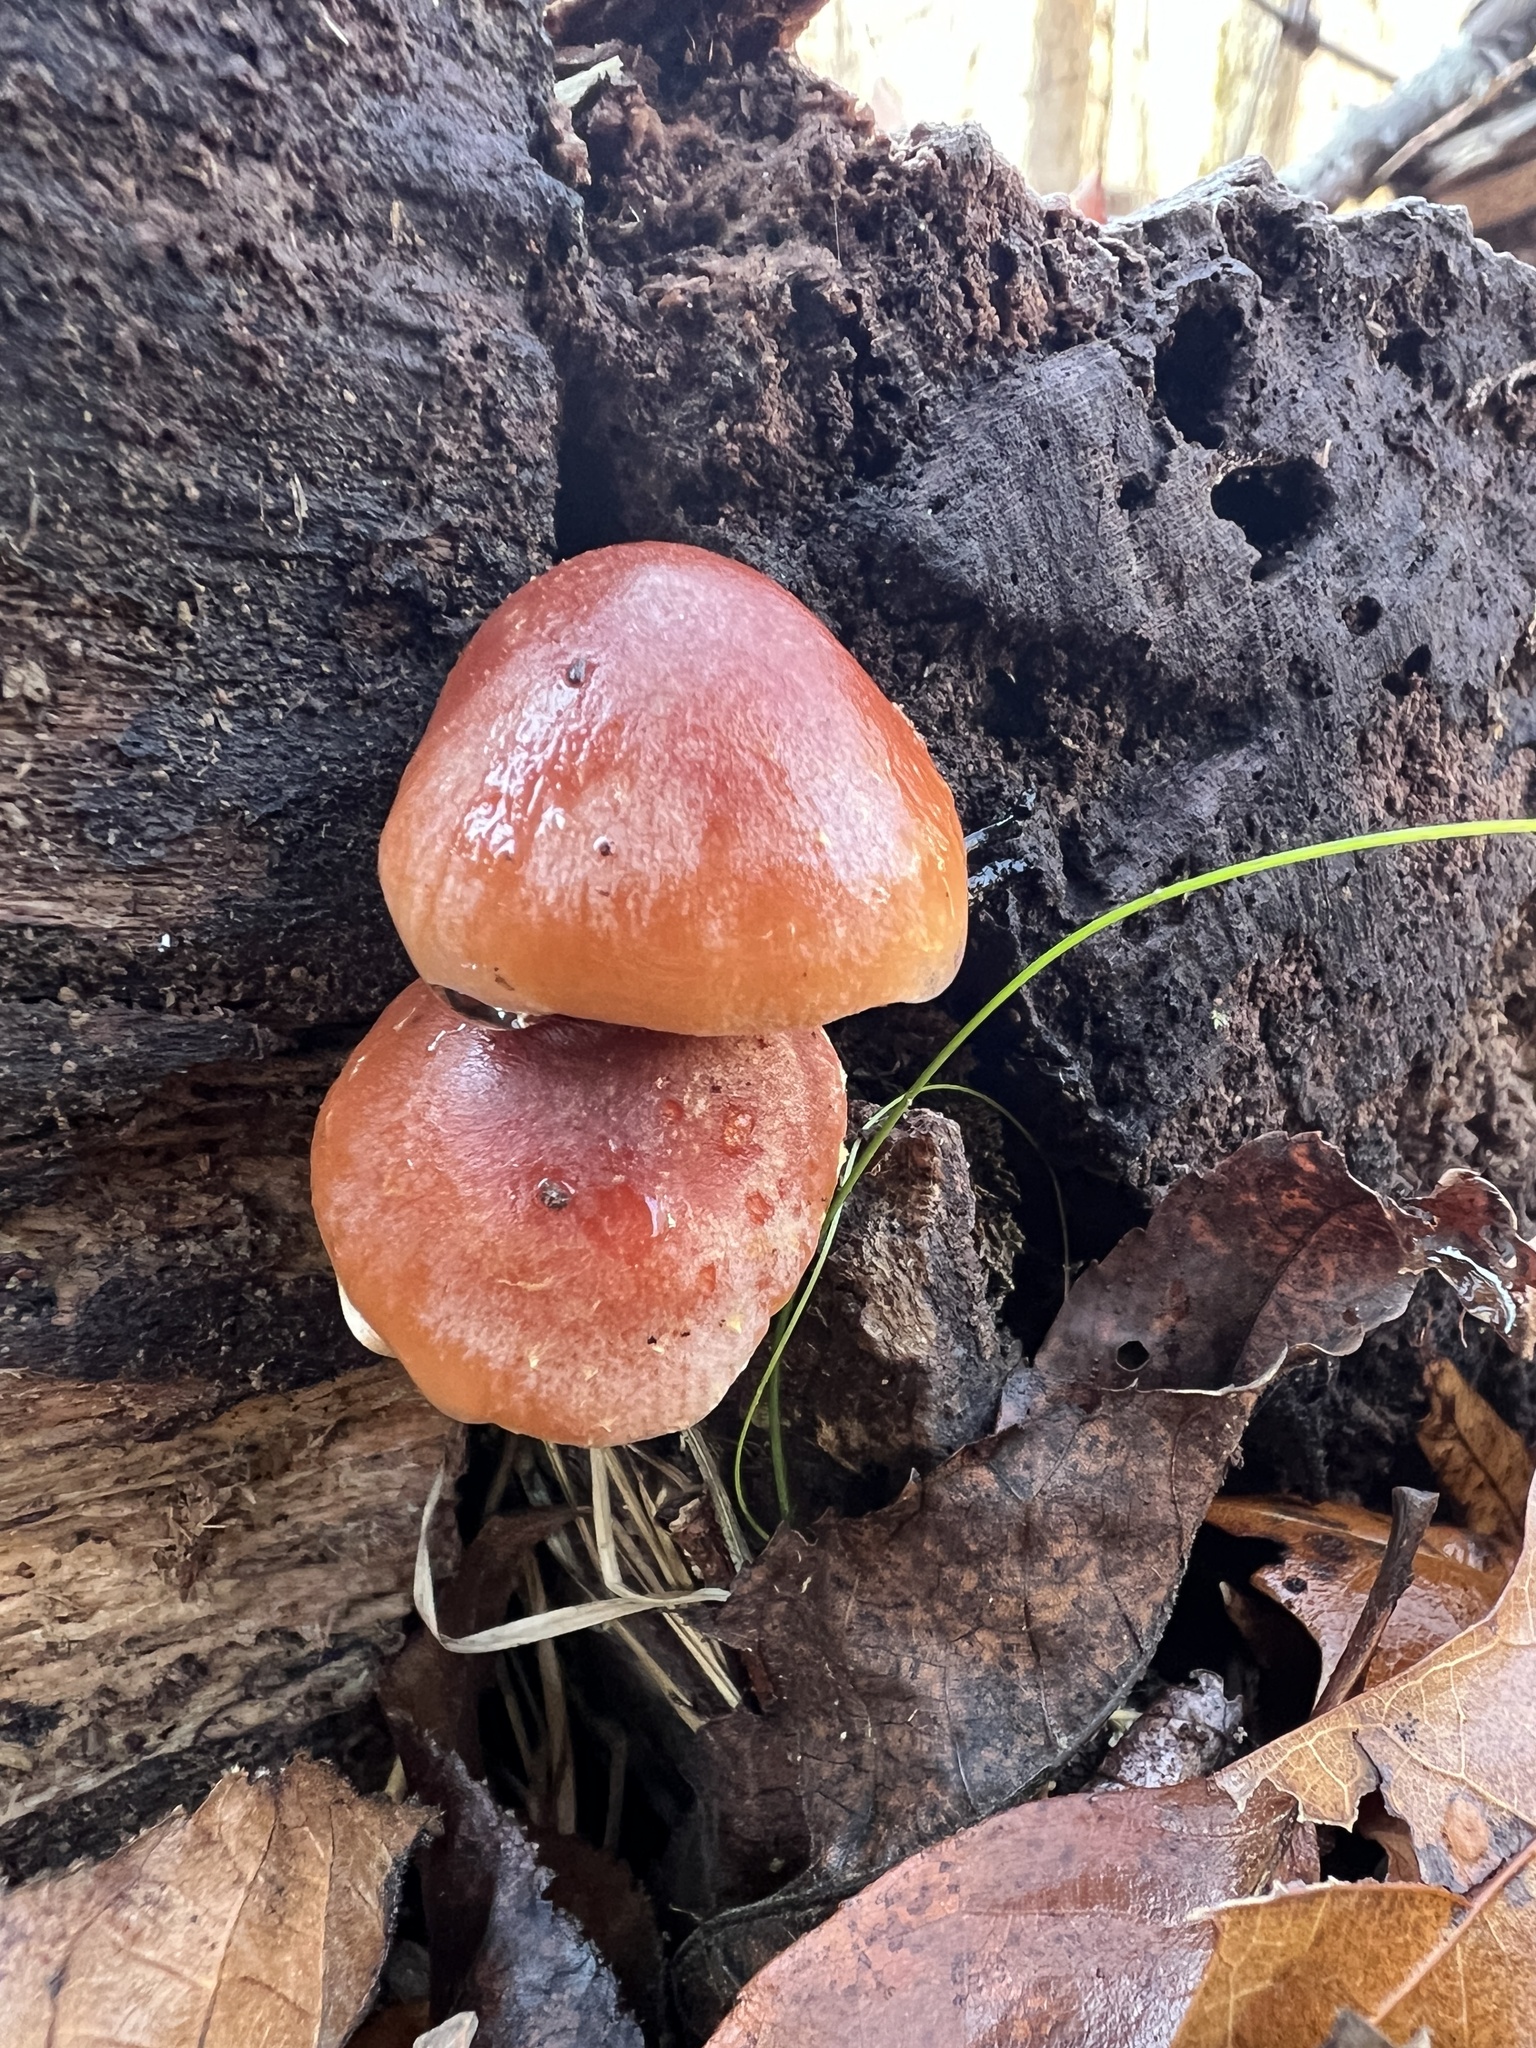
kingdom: Fungi
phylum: Basidiomycota
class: Agaricomycetes
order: Agaricales
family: Strophariaceae
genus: Hypholoma
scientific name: Hypholoma lateritium
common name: Brick caps
